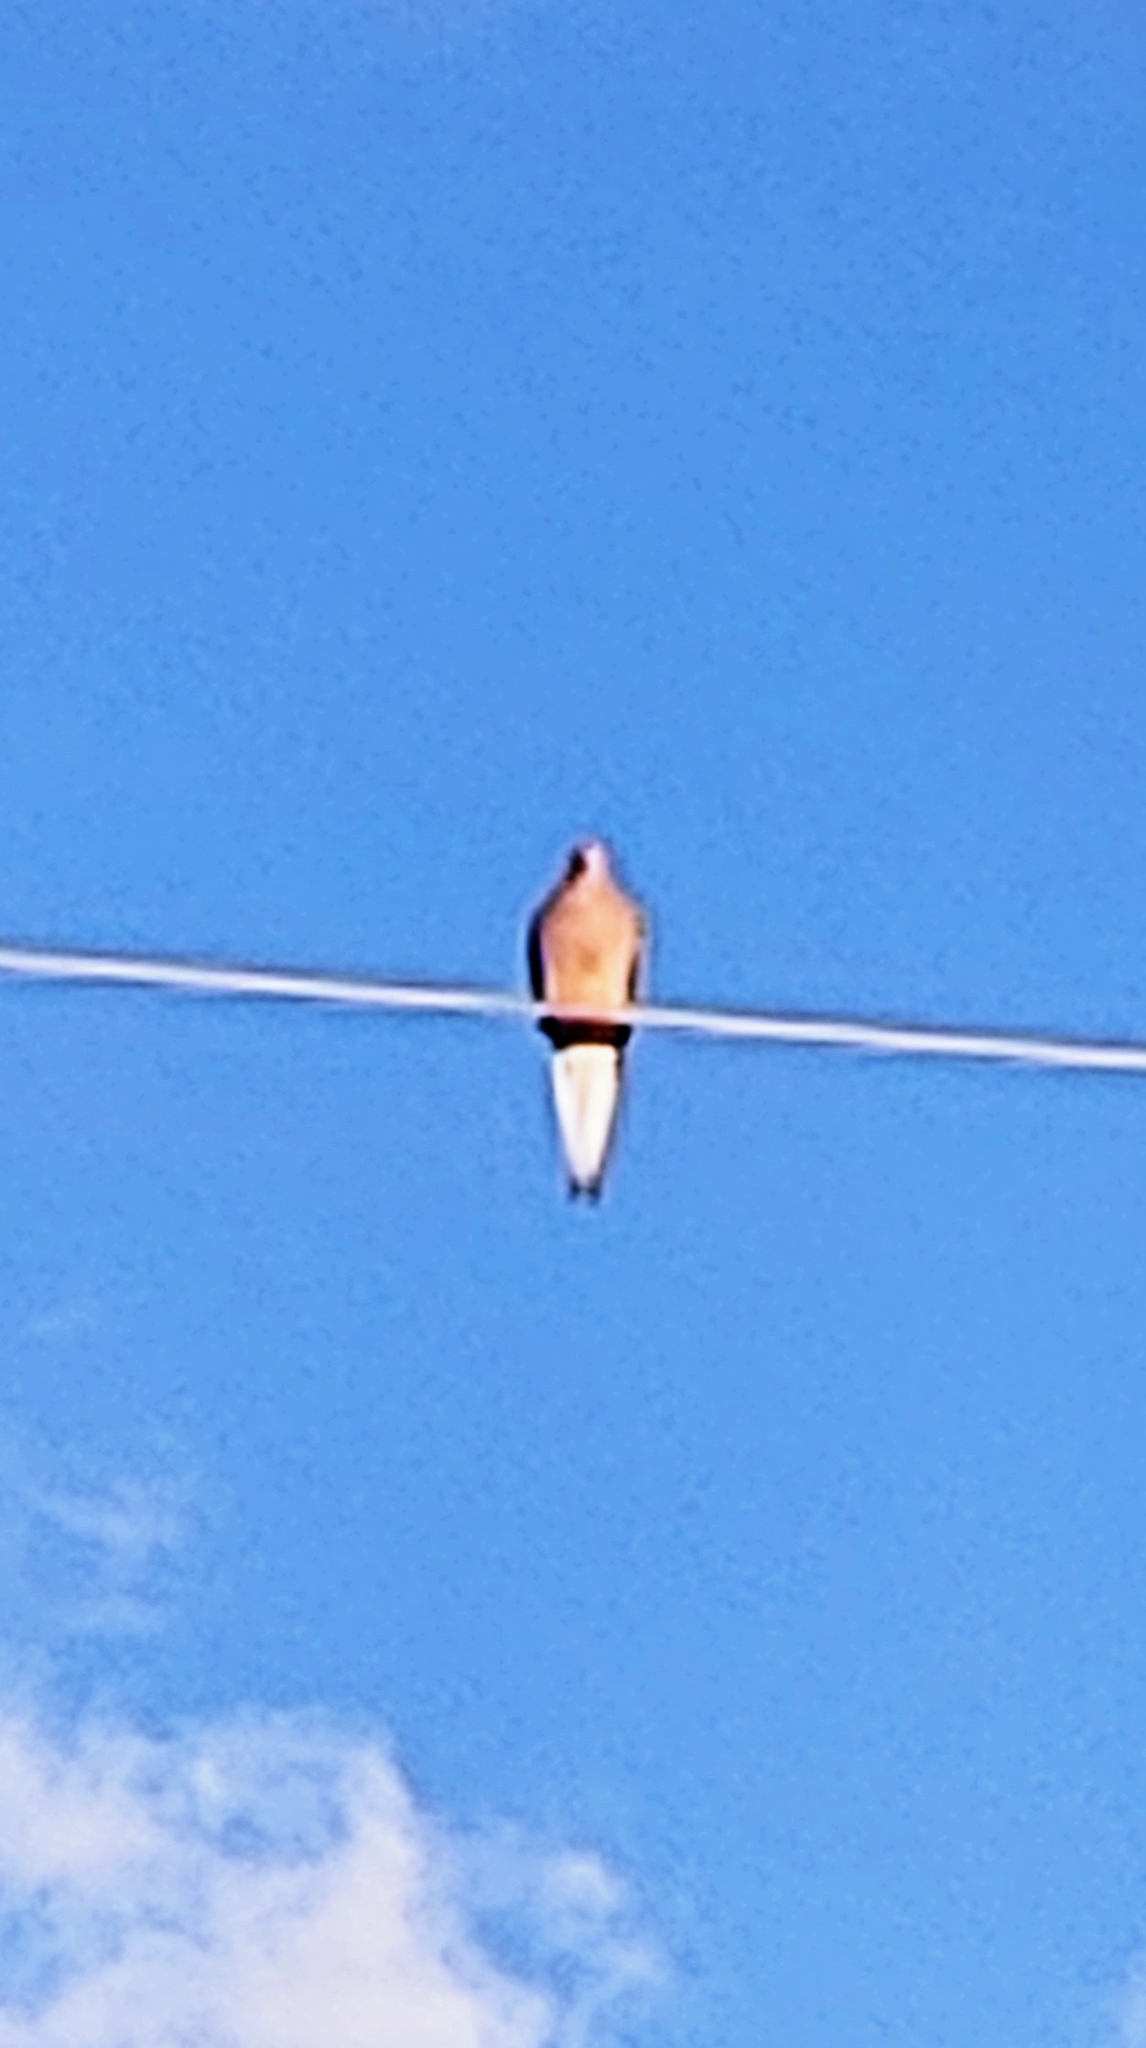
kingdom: Animalia
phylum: Chordata
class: Aves
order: Columbiformes
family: Columbidae
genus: Zenaida
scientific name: Zenaida macroura
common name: Mourning dove
